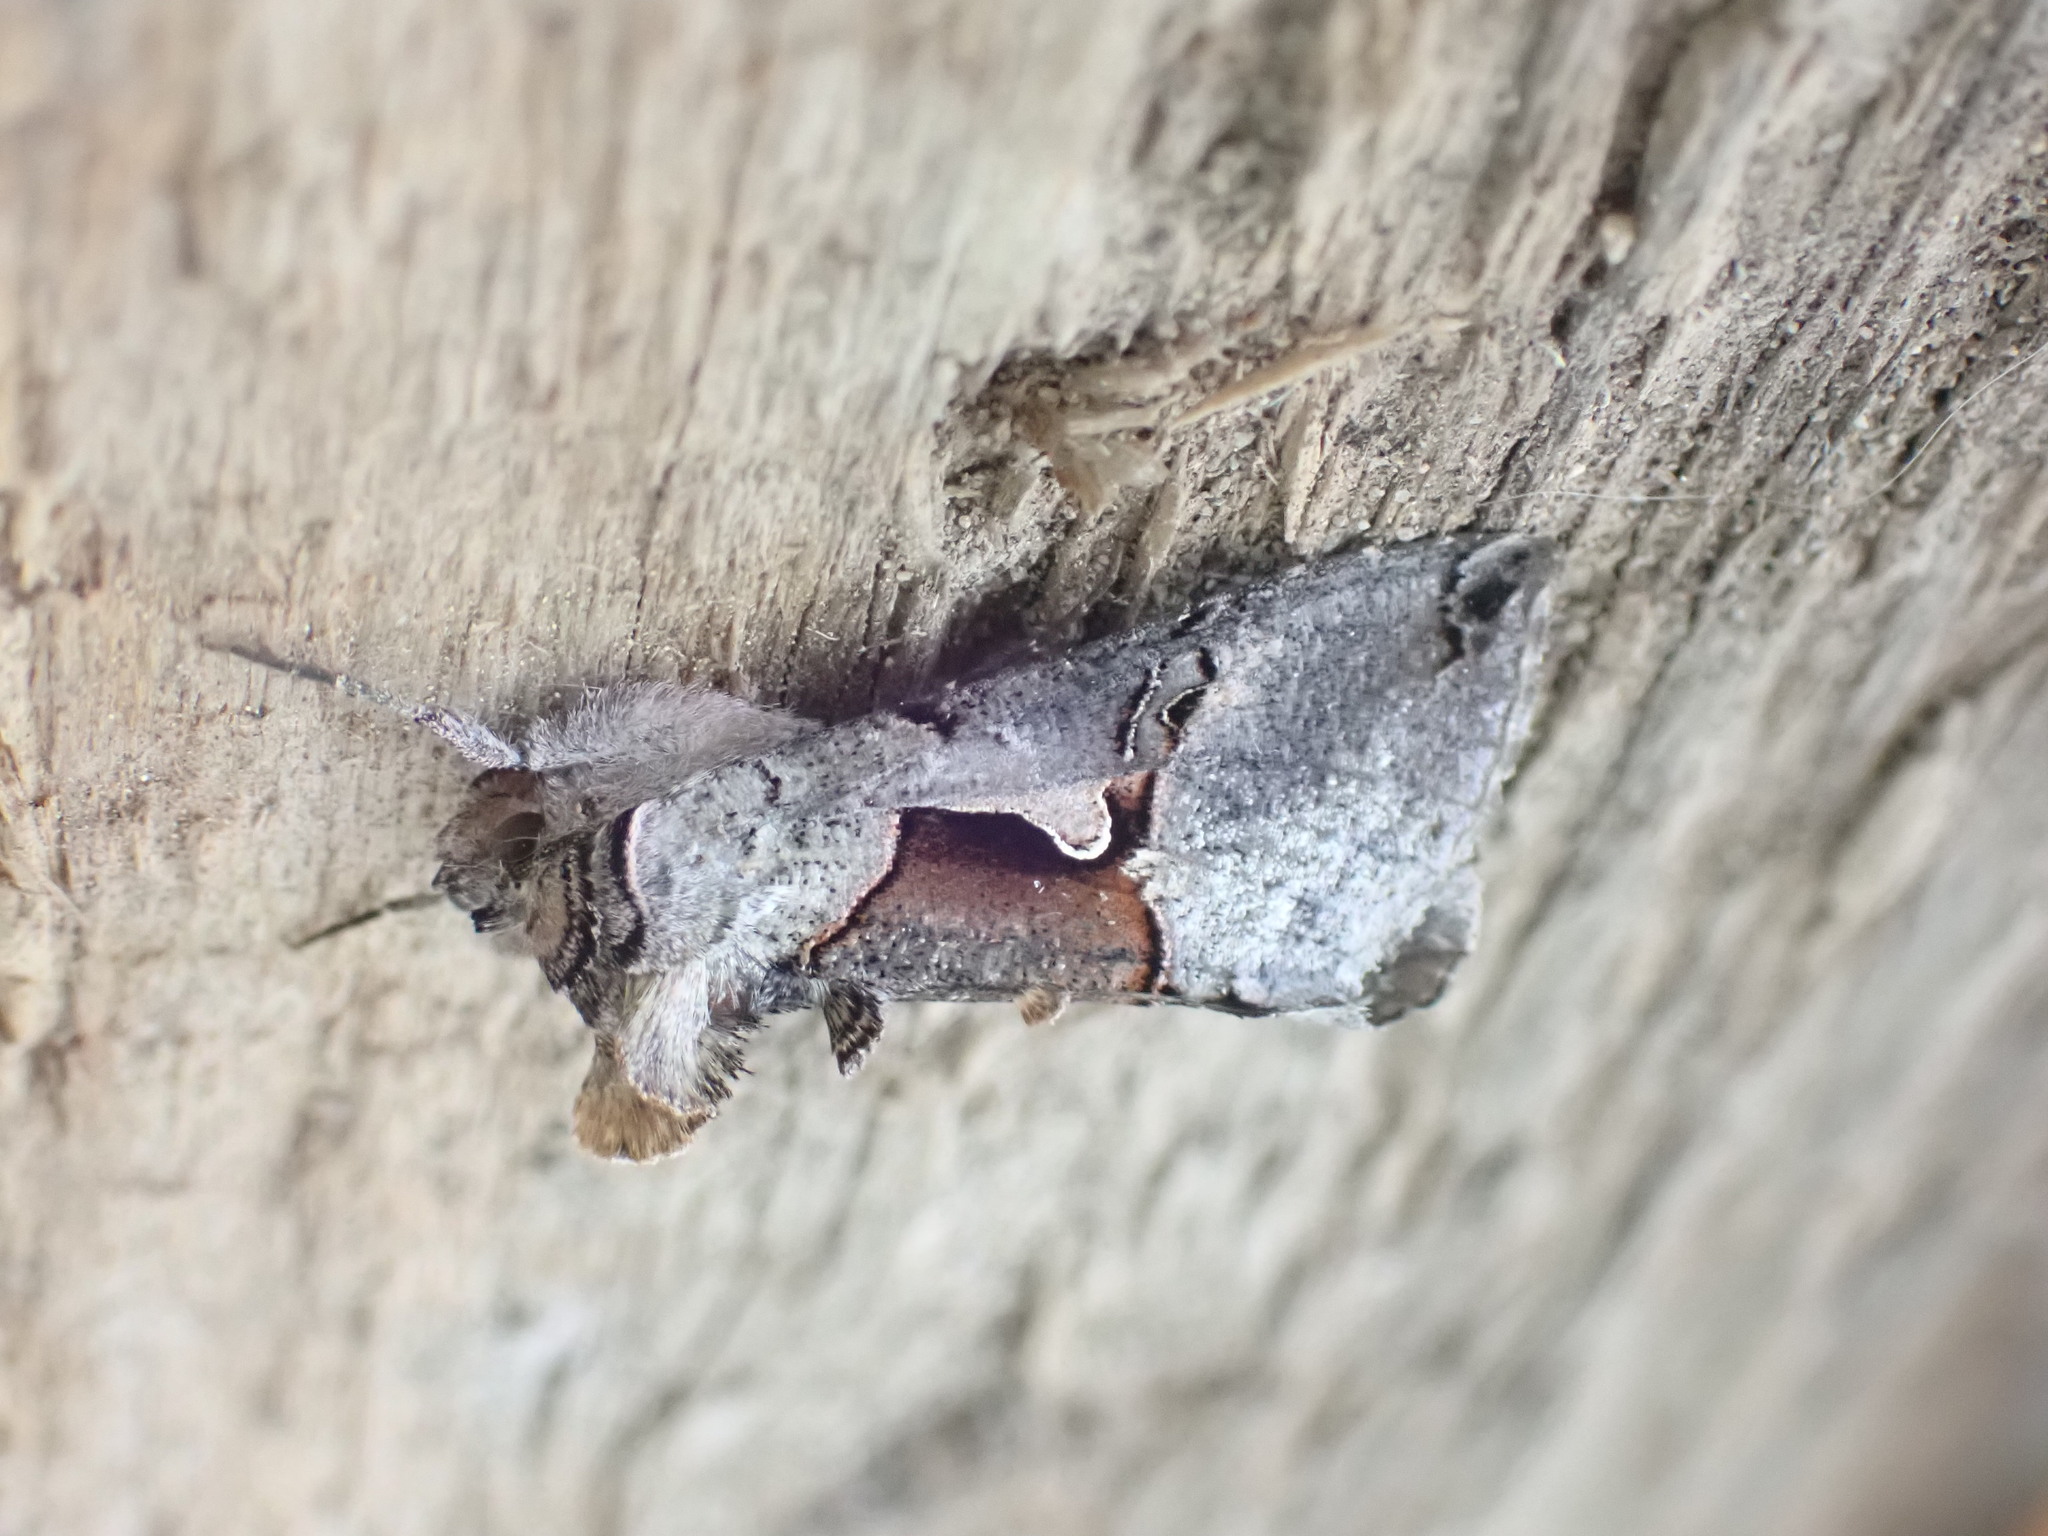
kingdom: Animalia
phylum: Arthropoda
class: Insecta
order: Lepidoptera
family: Noctuidae
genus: Autographa
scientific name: Autographa ampla
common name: Large looper moth
